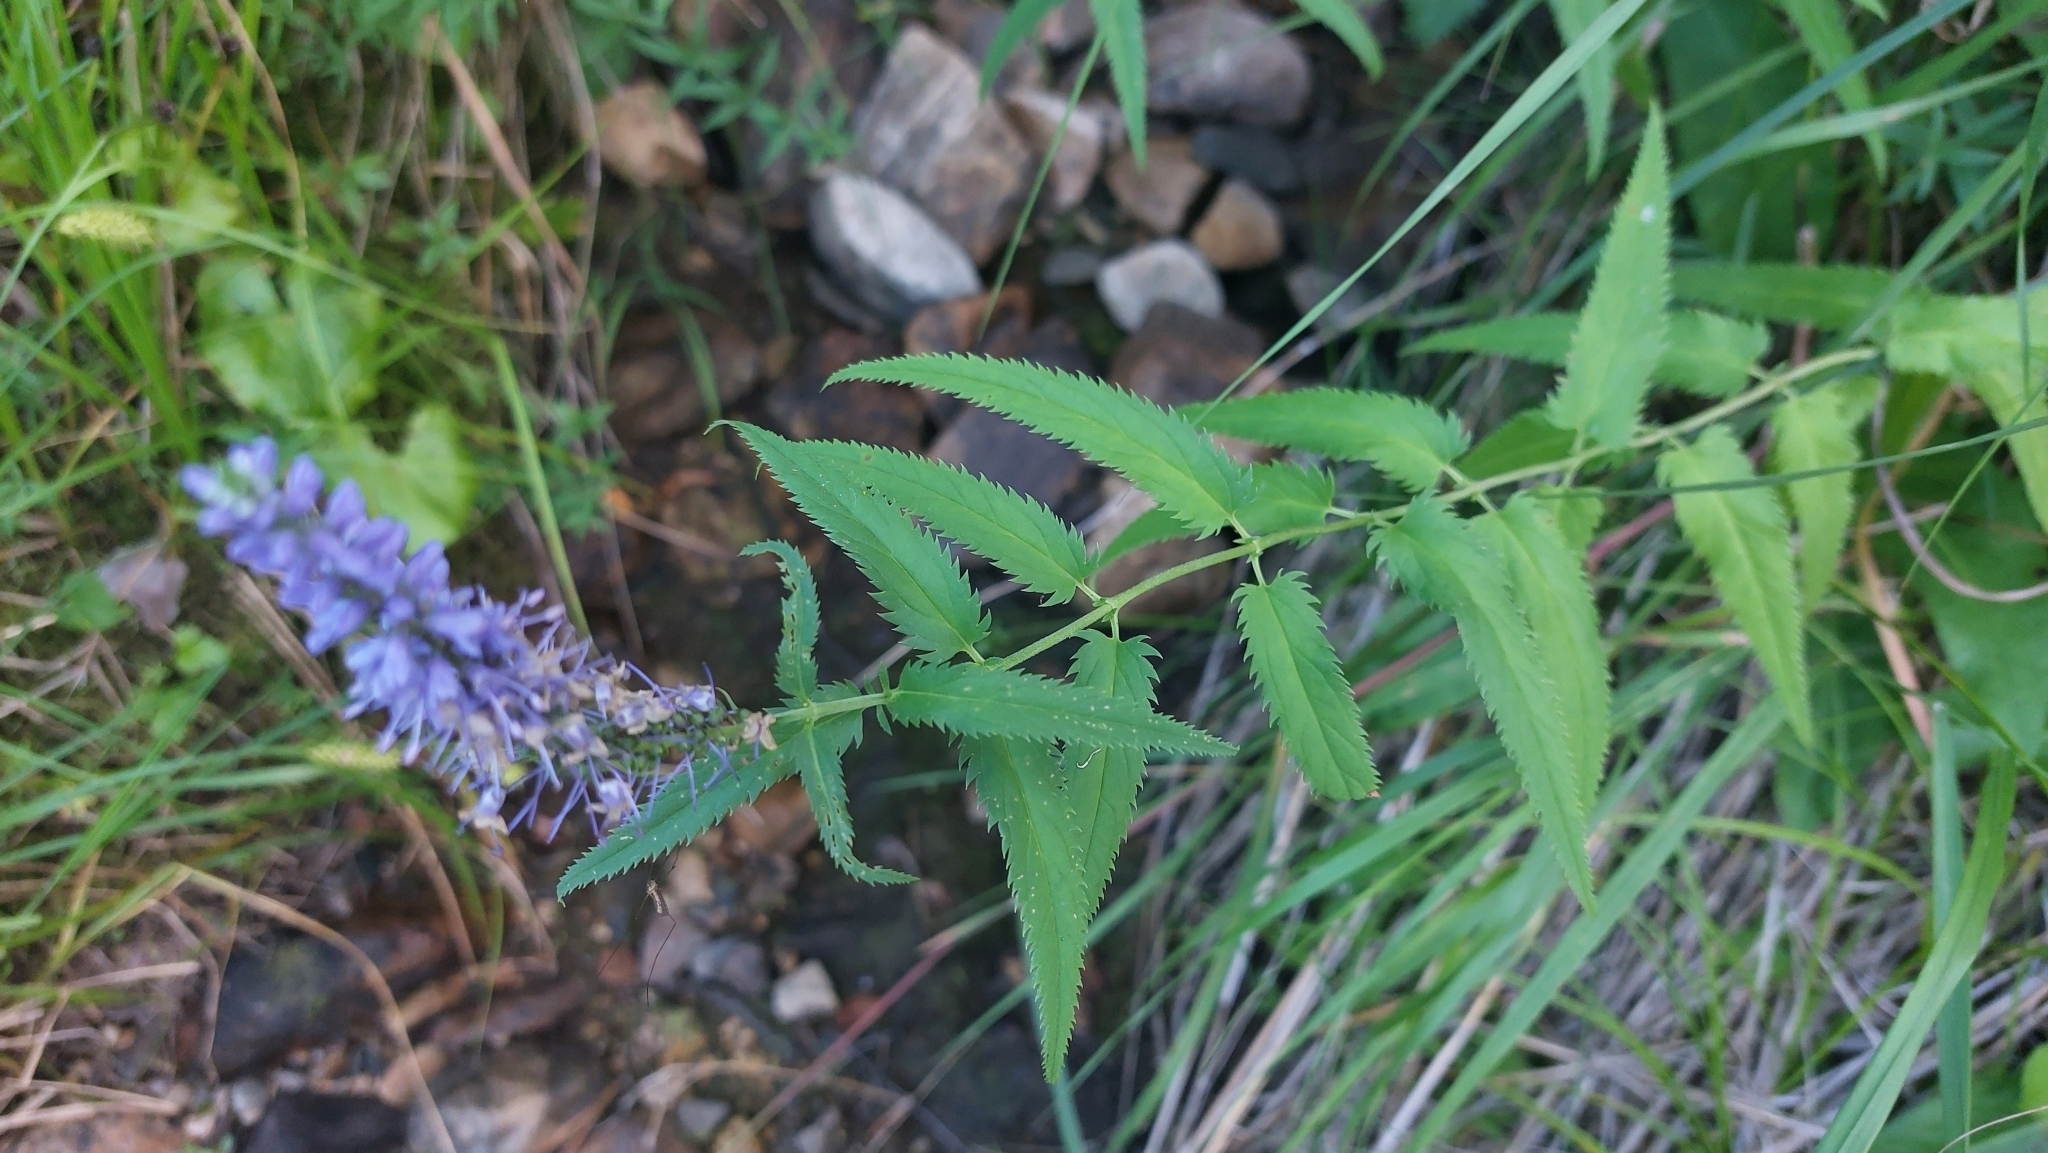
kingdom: Plantae
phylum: Tracheophyta
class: Magnoliopsida
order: Lamiales
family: Plantaginaceae
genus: Veronica
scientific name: Veronica longifolia
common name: Garden speedwell
